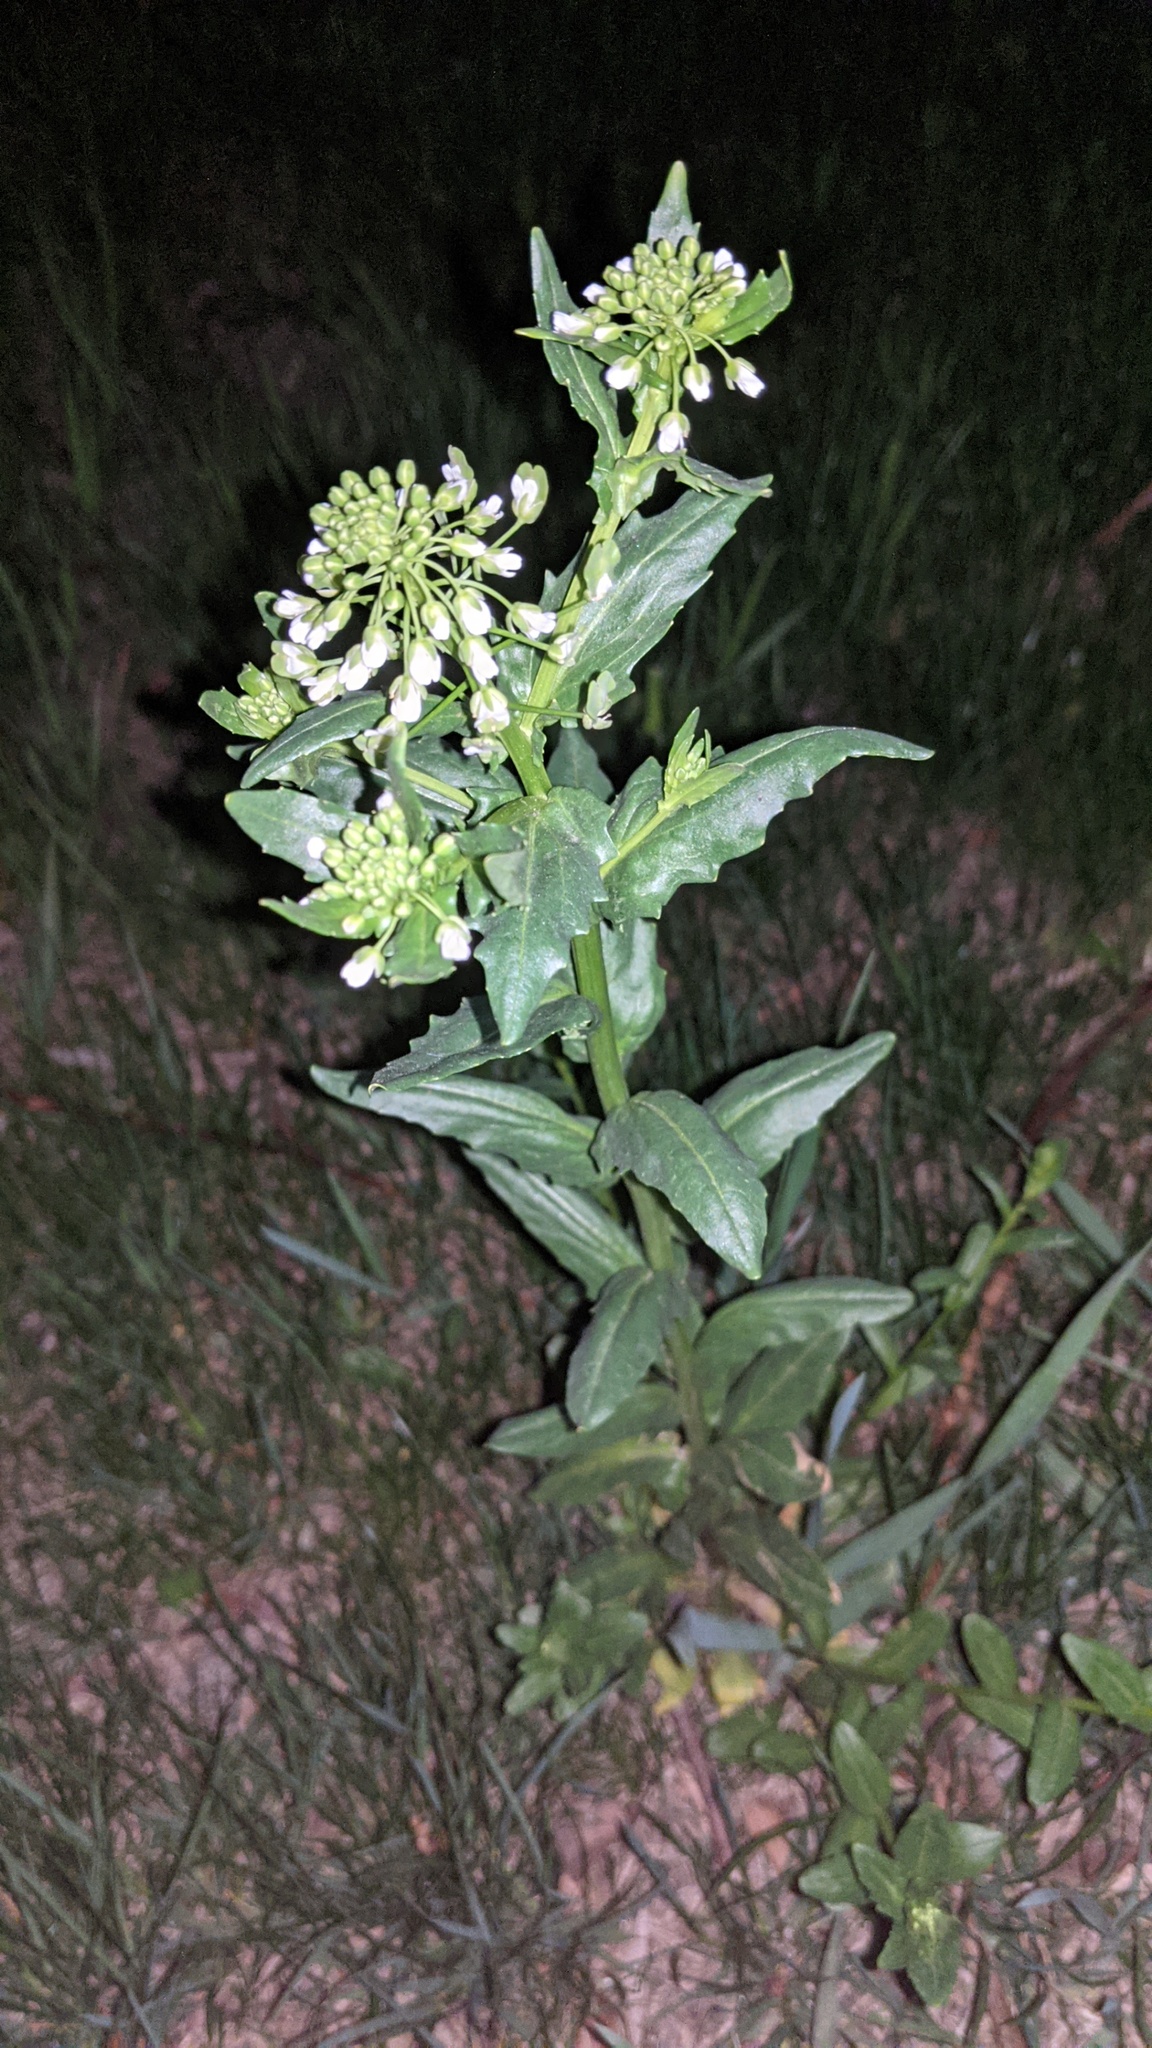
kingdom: Plantae
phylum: Tracheophyta
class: Magnoliopsida
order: Brassicales
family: Brassicaceae
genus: Thlaspi
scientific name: Thlaspi arvense
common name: Field pennycress
